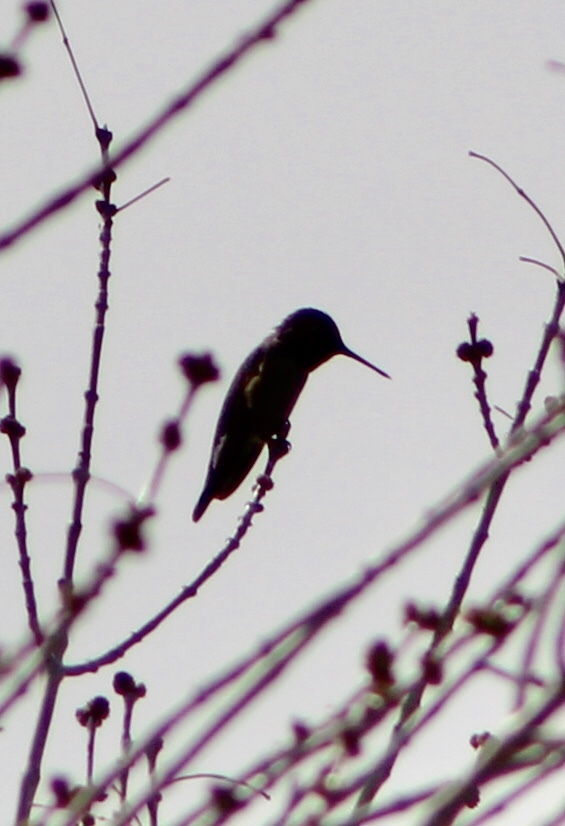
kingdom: Animalia
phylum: Chordata
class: Aves
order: Apodiformes
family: Trochilidae
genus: Calypte
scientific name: Calypte anna
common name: Anna's hummingbird
